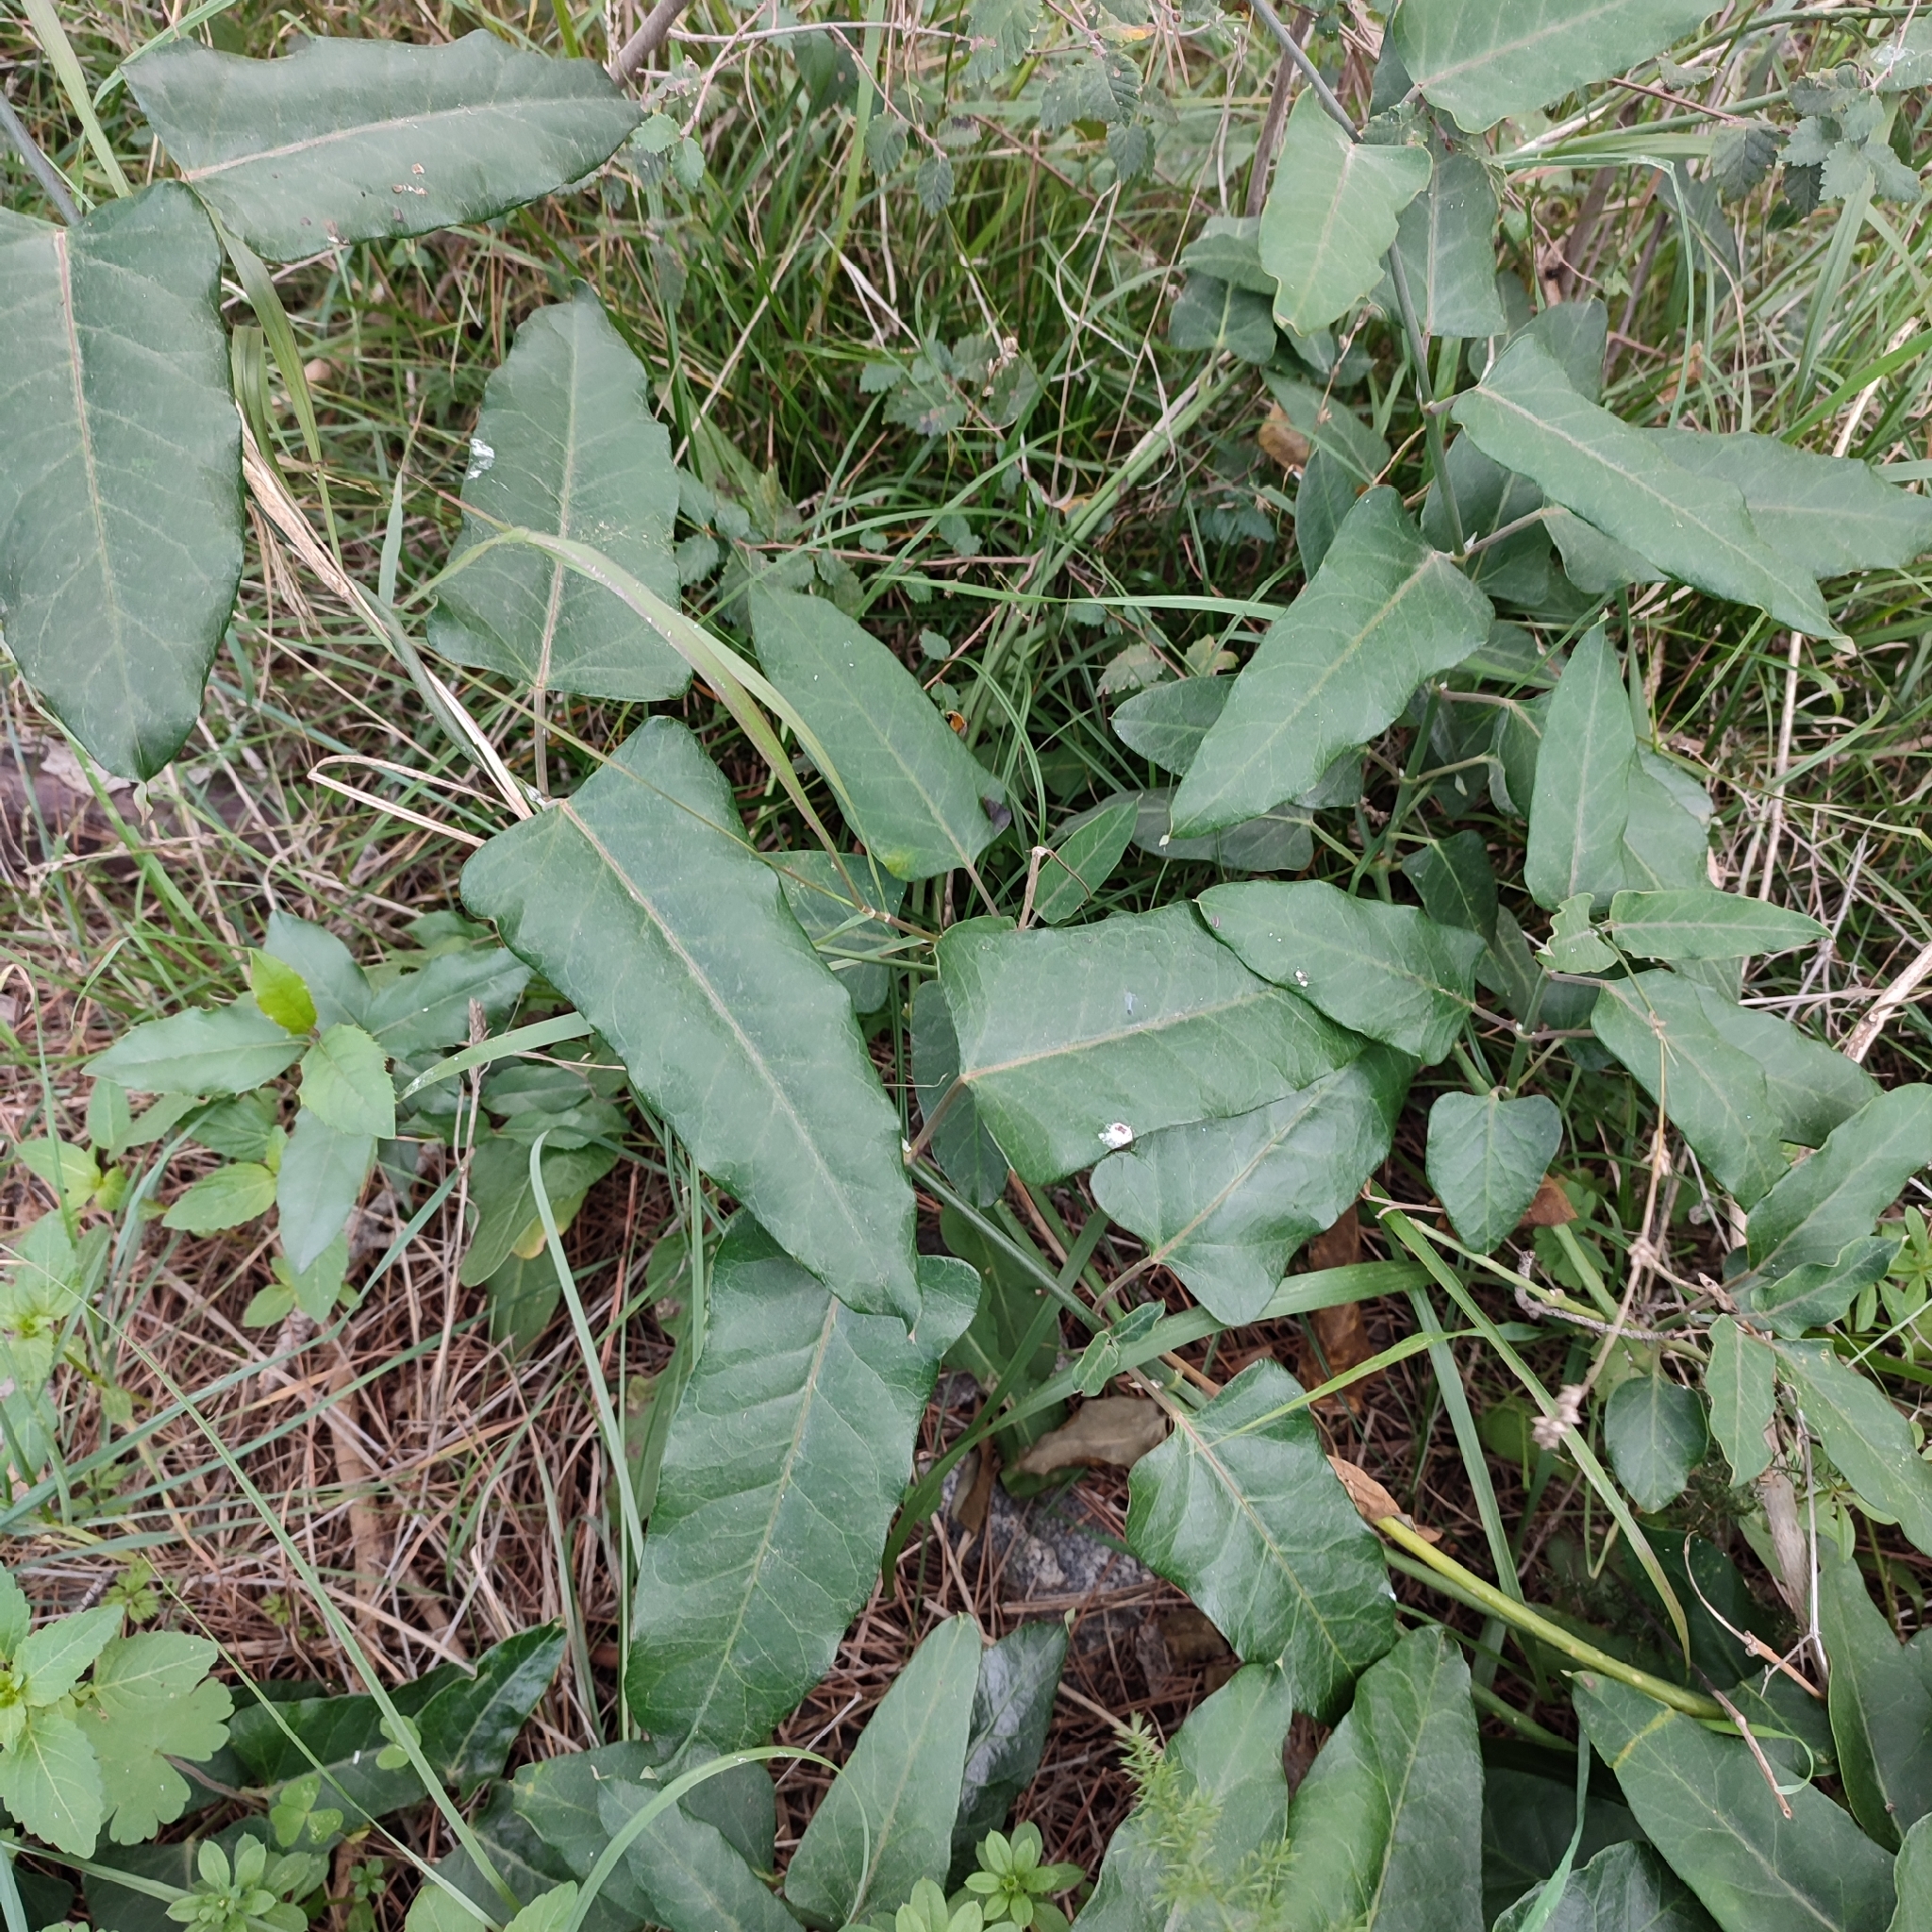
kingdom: Plantae
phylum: Tracheophyta
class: Magnoliopsida
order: Gentianales
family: Apocynaceae
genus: Araujia
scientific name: Araujia sericifera
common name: White bladderflower
